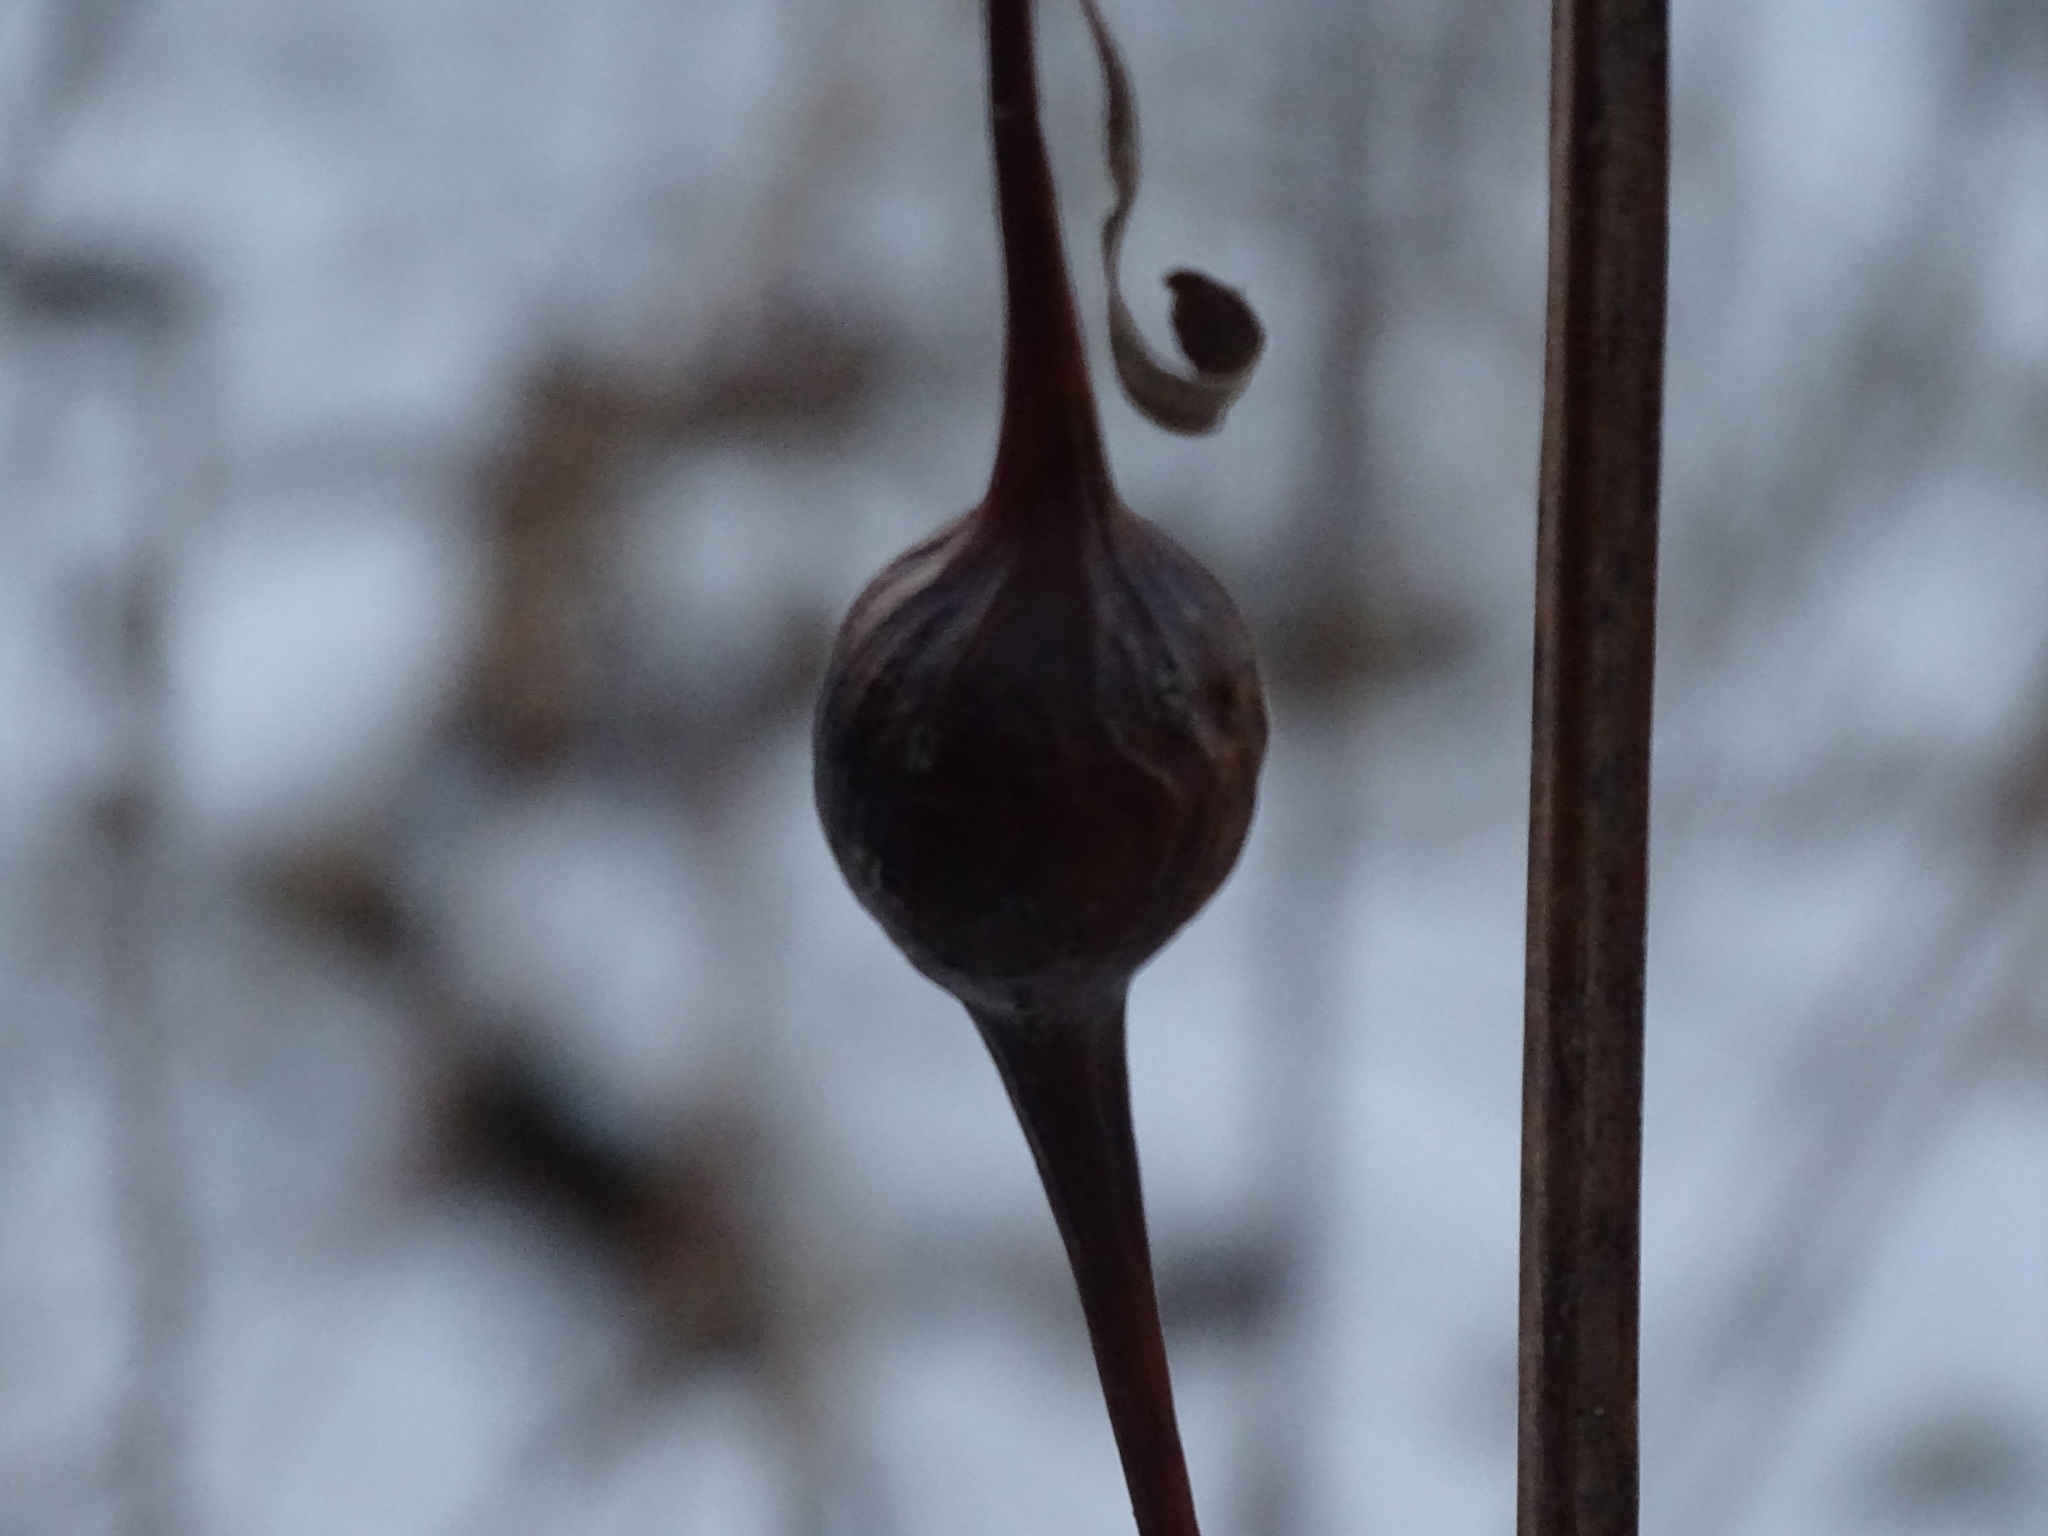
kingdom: Animalia
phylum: Arthropoda
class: Insecta
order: Diptera
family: Tephritidae
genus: Eurosta
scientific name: Eurosta solidaginis
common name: Goldenrod gall fly
